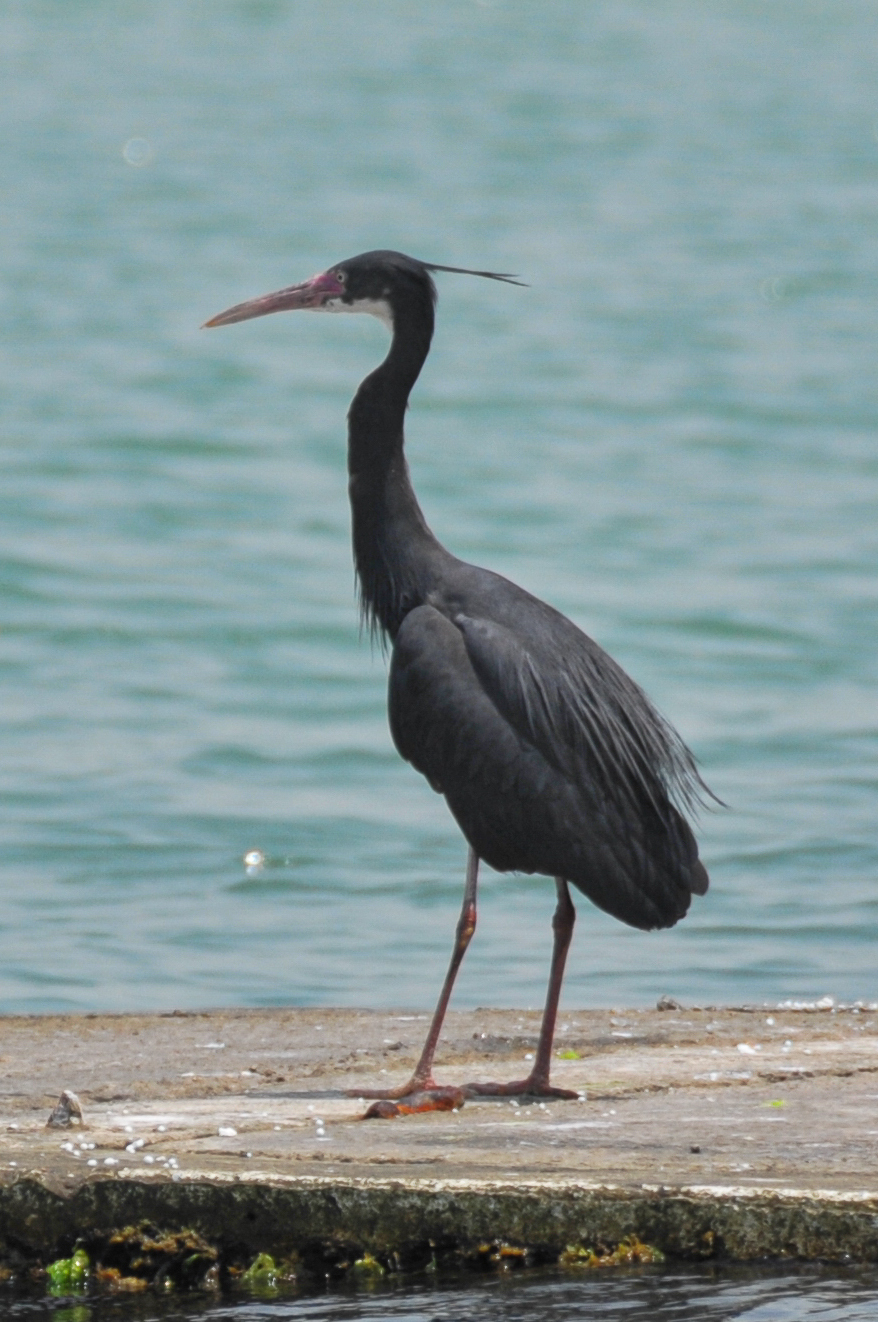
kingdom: Animalia
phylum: Chordata
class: Aves
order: Pelecaniformes
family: Ardeidae
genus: Egretta
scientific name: Egretta gularis
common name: Western reef-heron
